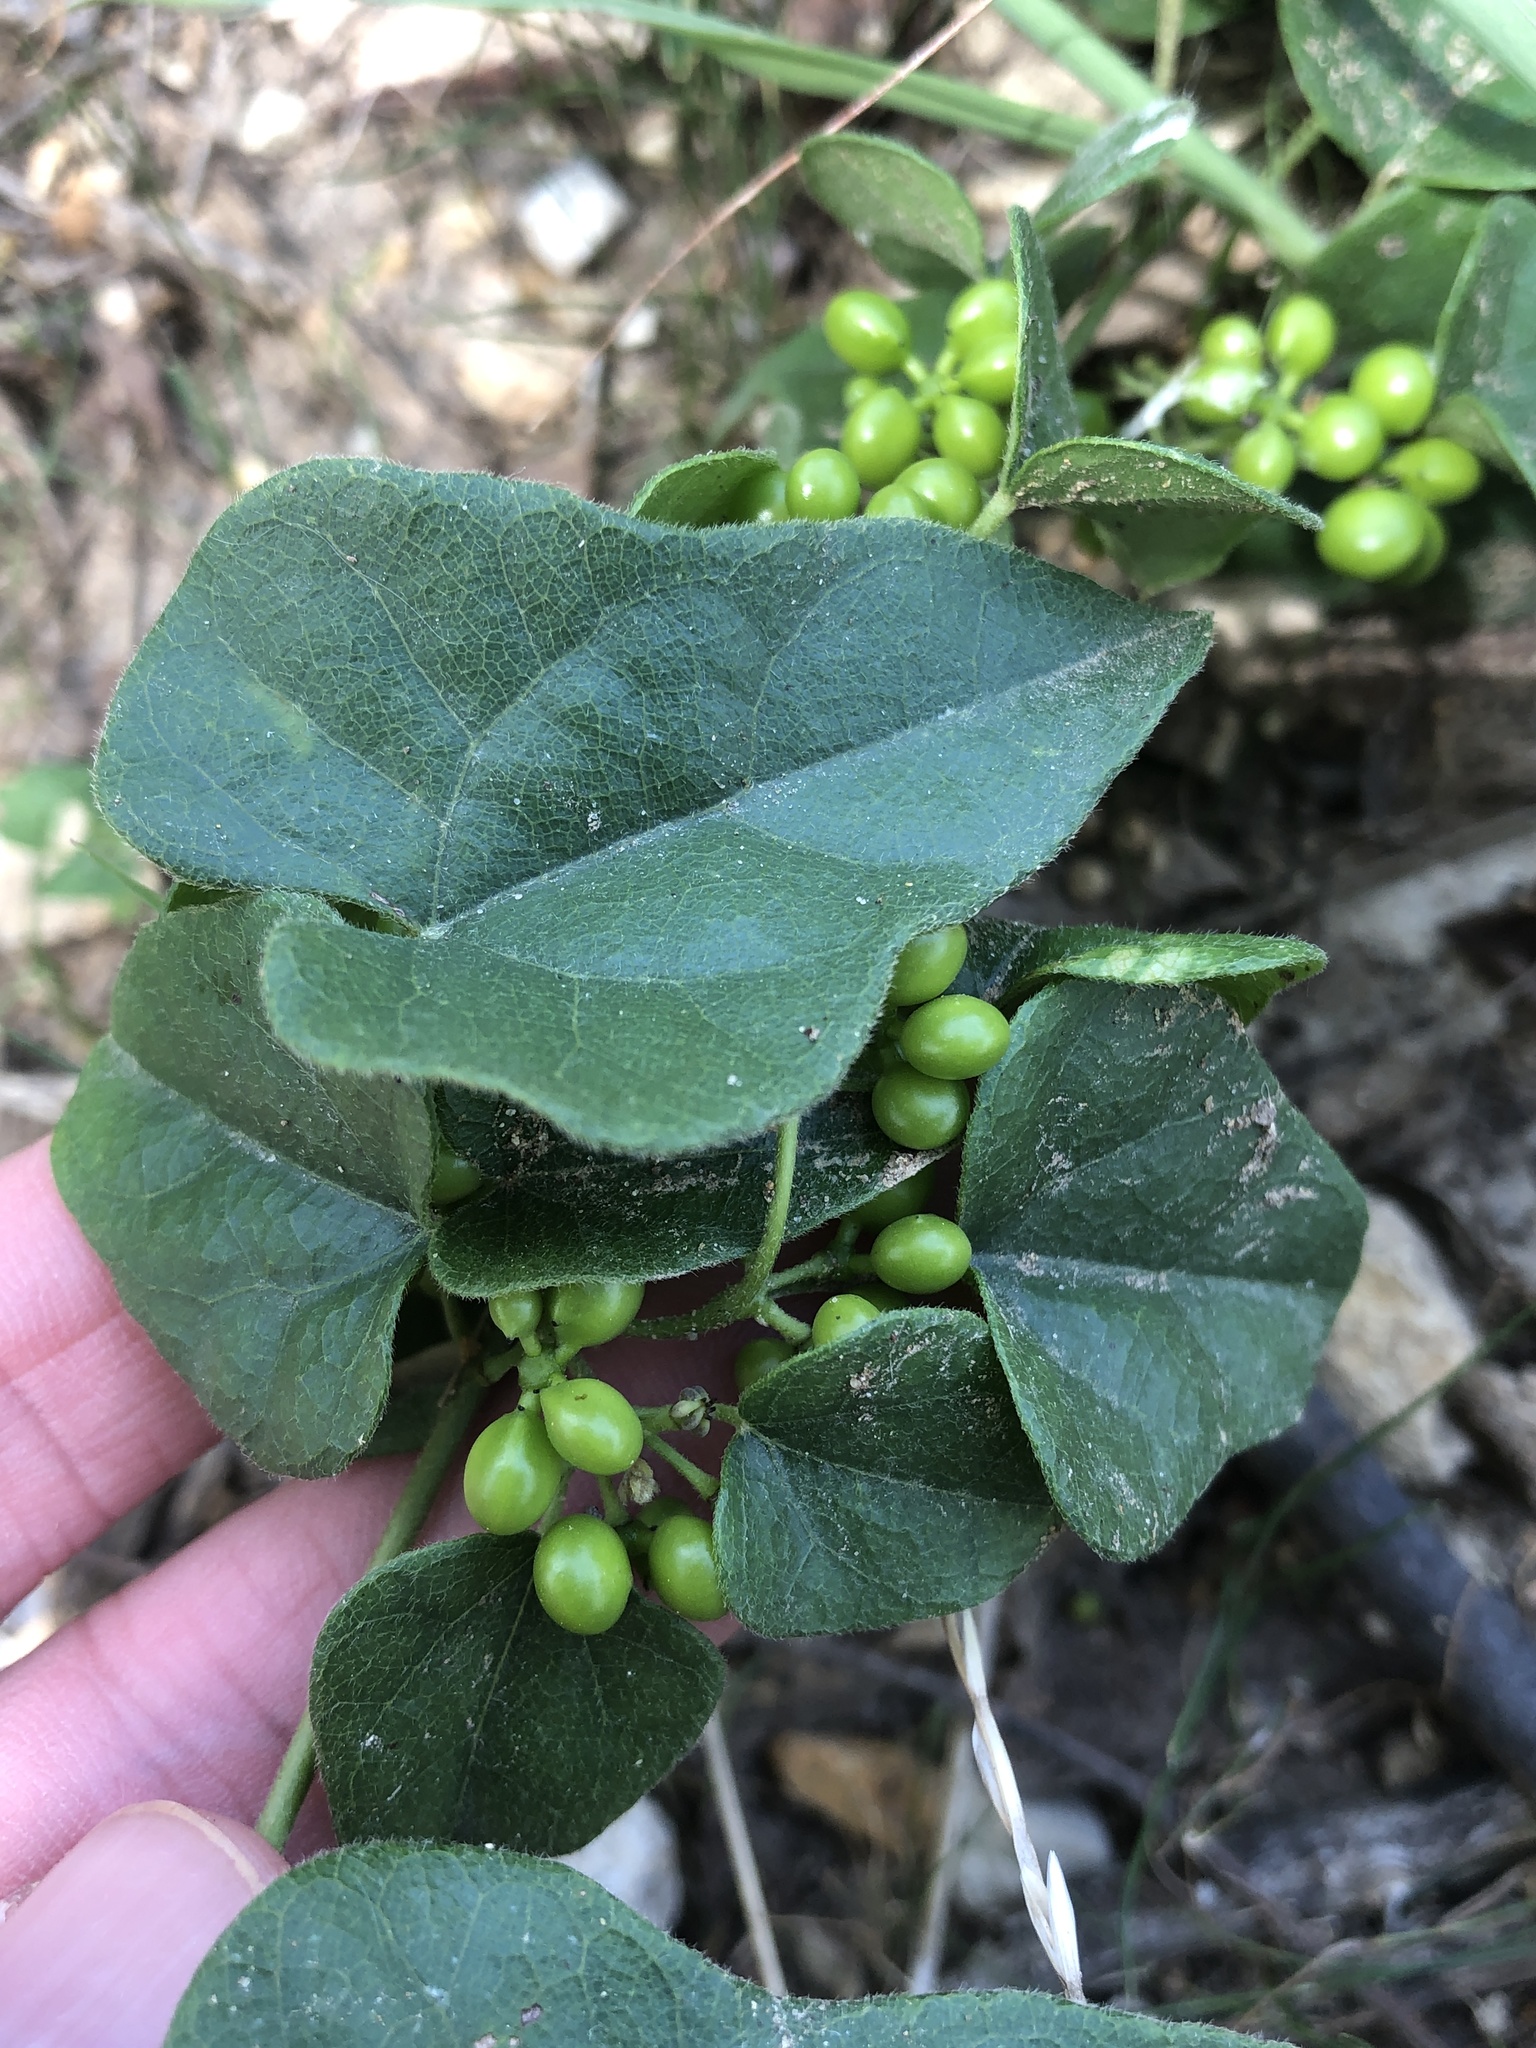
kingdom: Plantae
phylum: Tracheophyta
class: Magnoliopsida
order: Ranunculales
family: Menispermaceae
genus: Cocculus
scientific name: Cocculus carolinus
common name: Carolina moonseed
